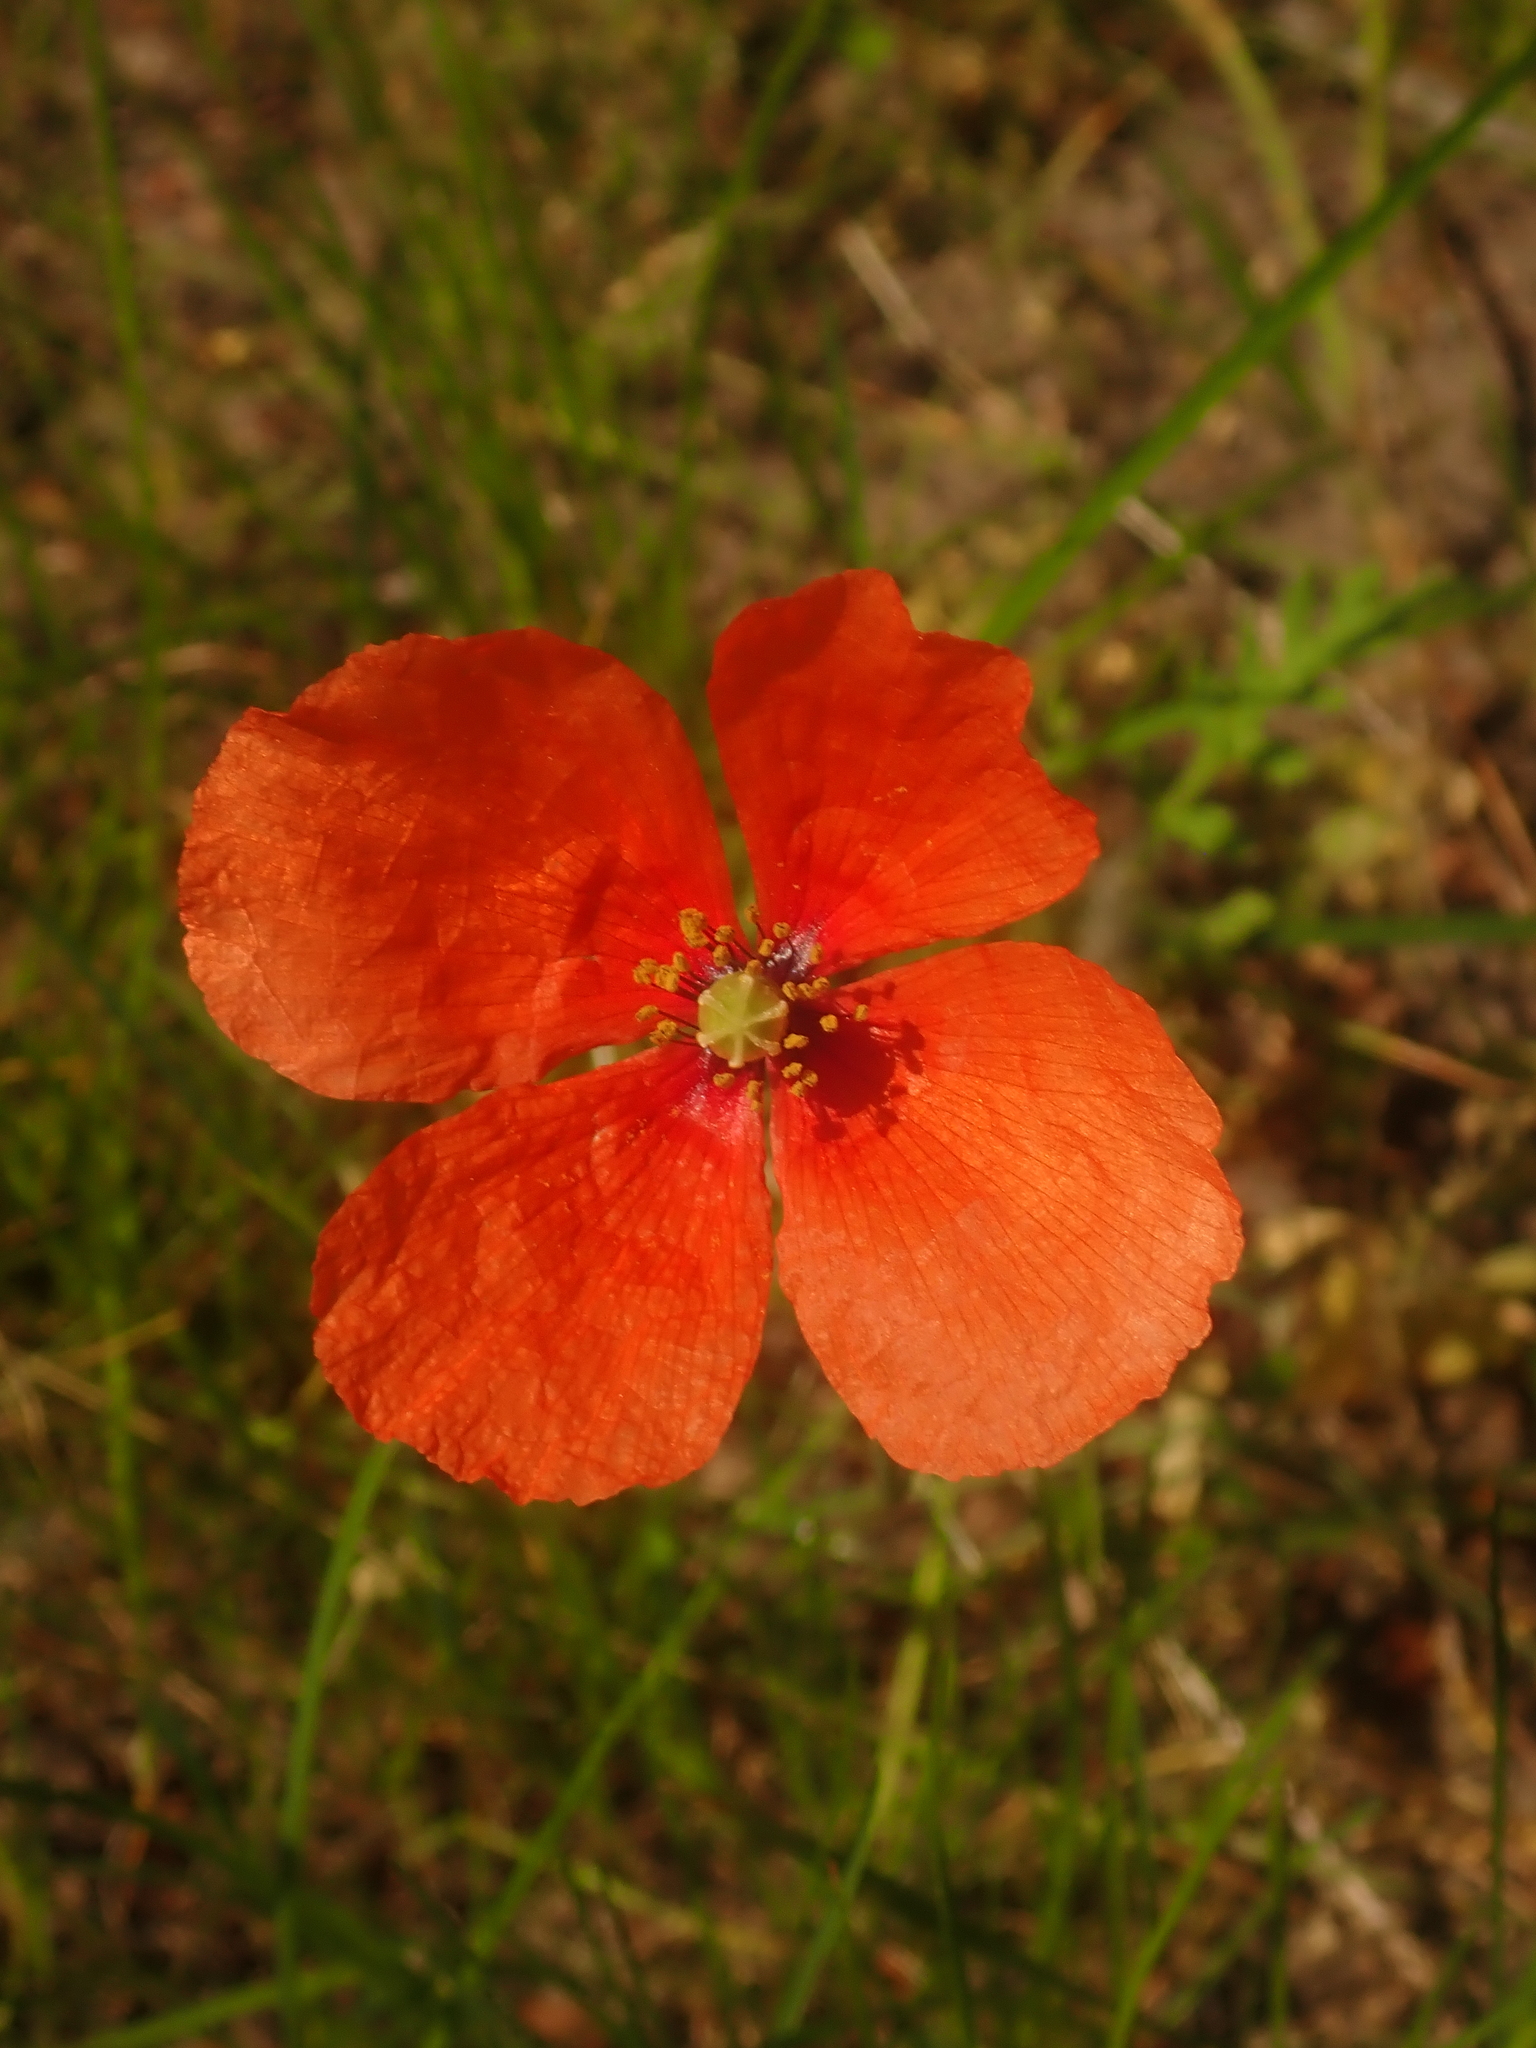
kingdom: Plantae
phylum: Tracheophyta
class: Magnoliopsida
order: Ranunculales
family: Papaveraceae
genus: Papaver
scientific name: Papaver dubium
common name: Long-headed poppy
